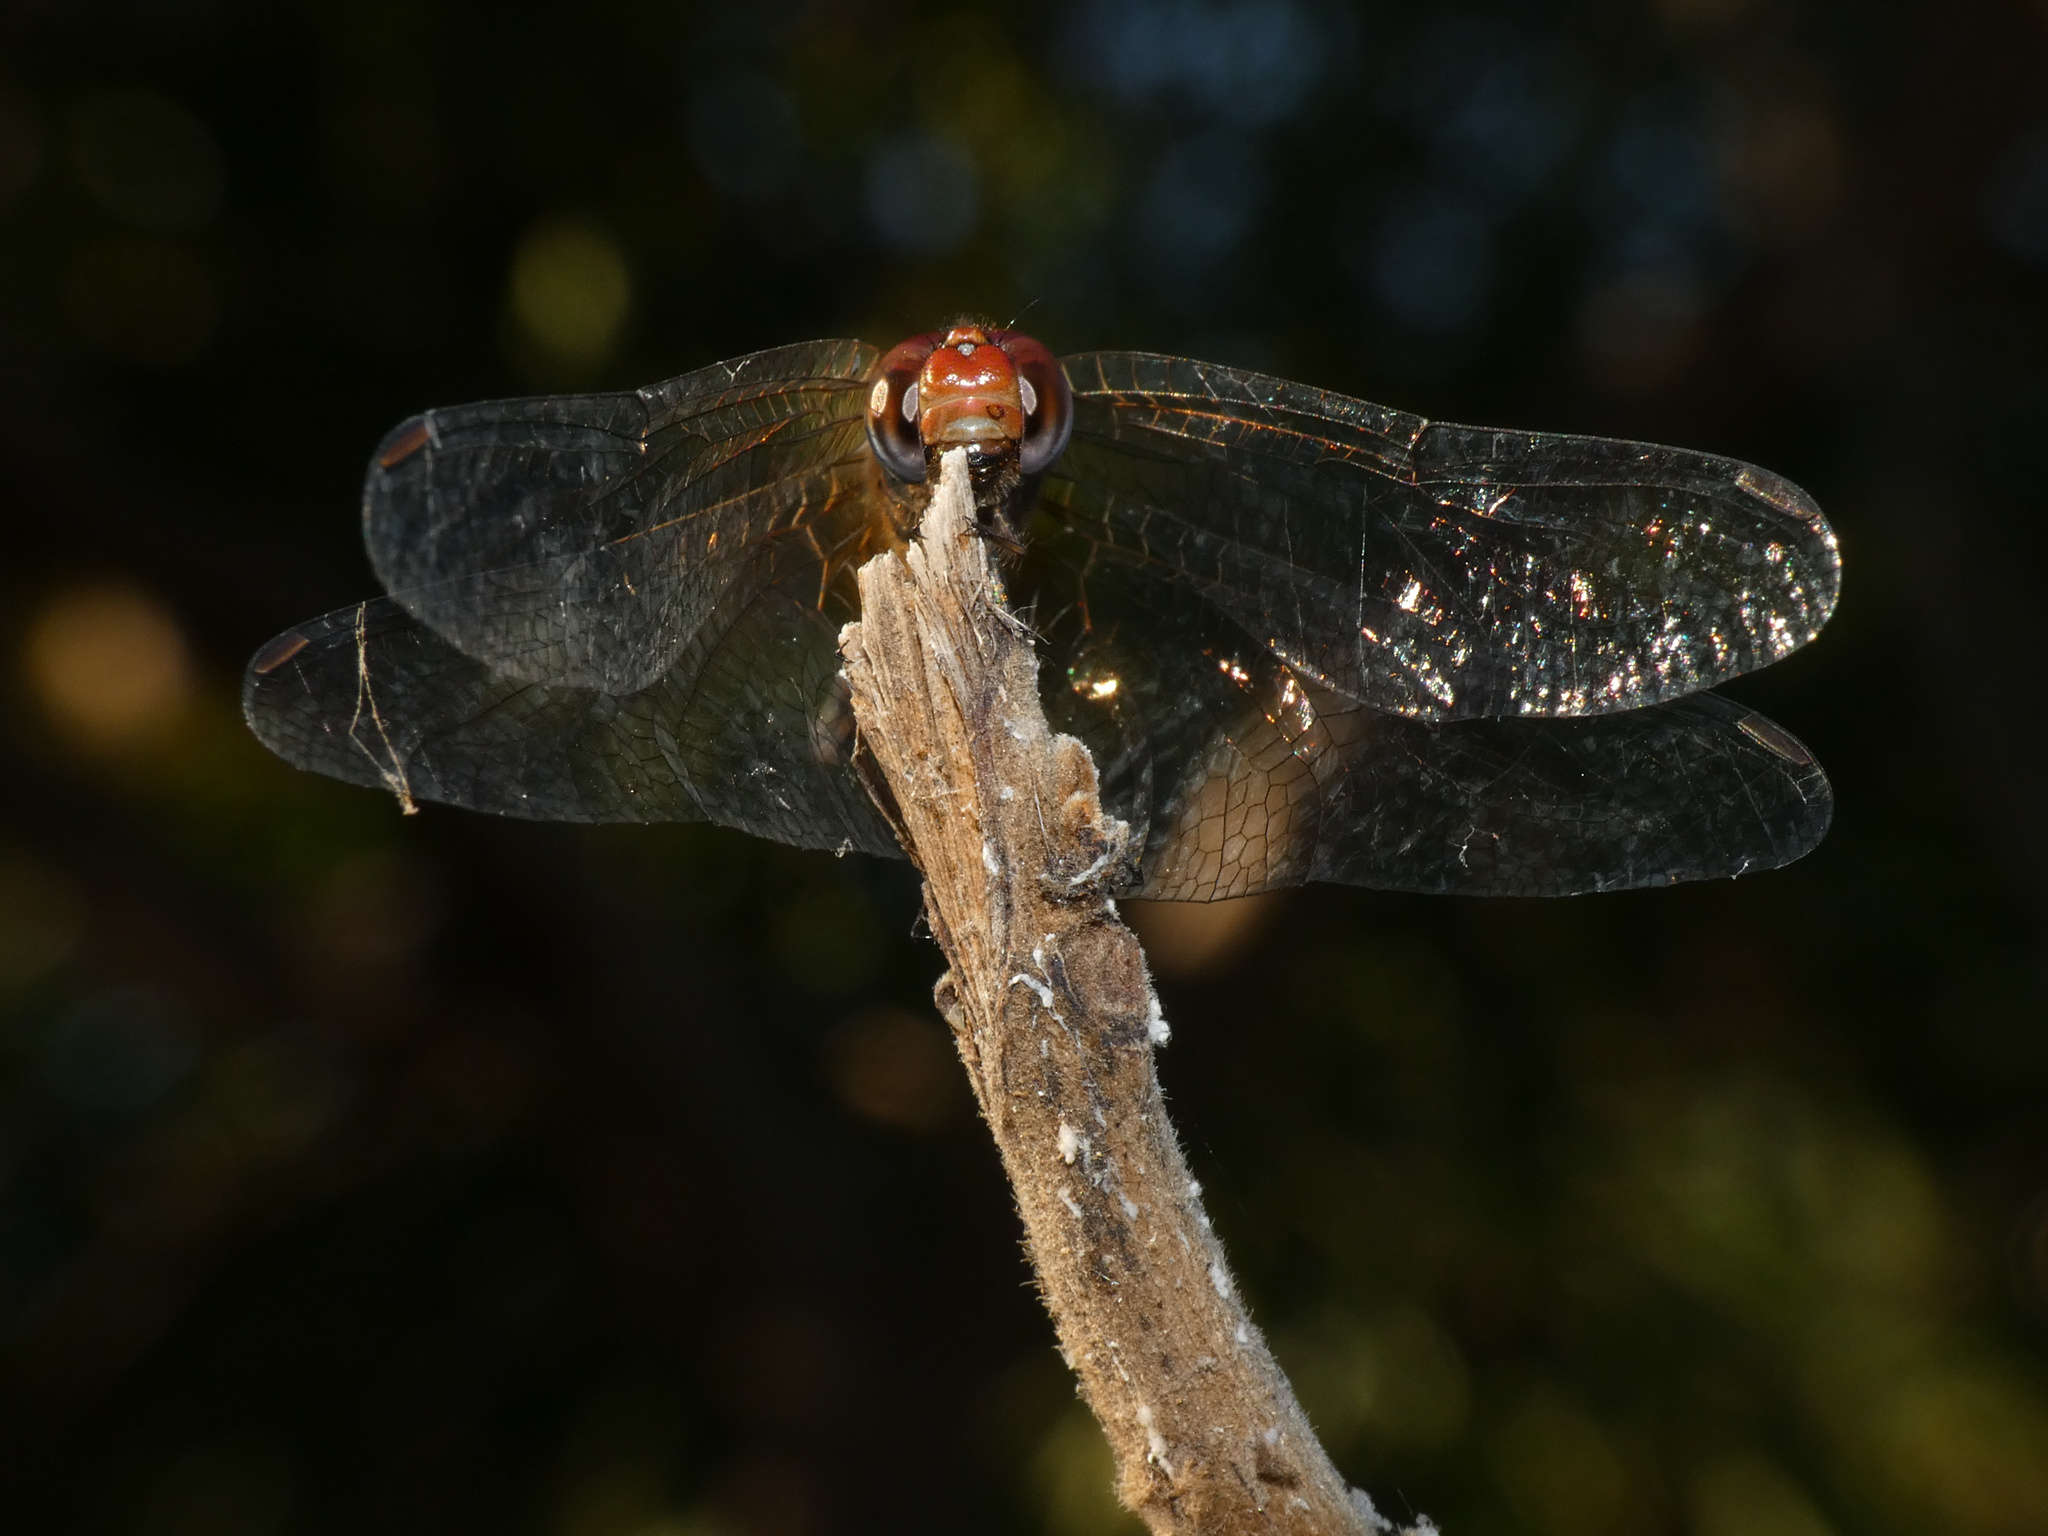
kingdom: Animalia
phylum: Arthropoda
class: Insecta
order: Odonata
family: Libellulidae
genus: Trithemis
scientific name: Trithemis werneri
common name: Elegant dropwing
